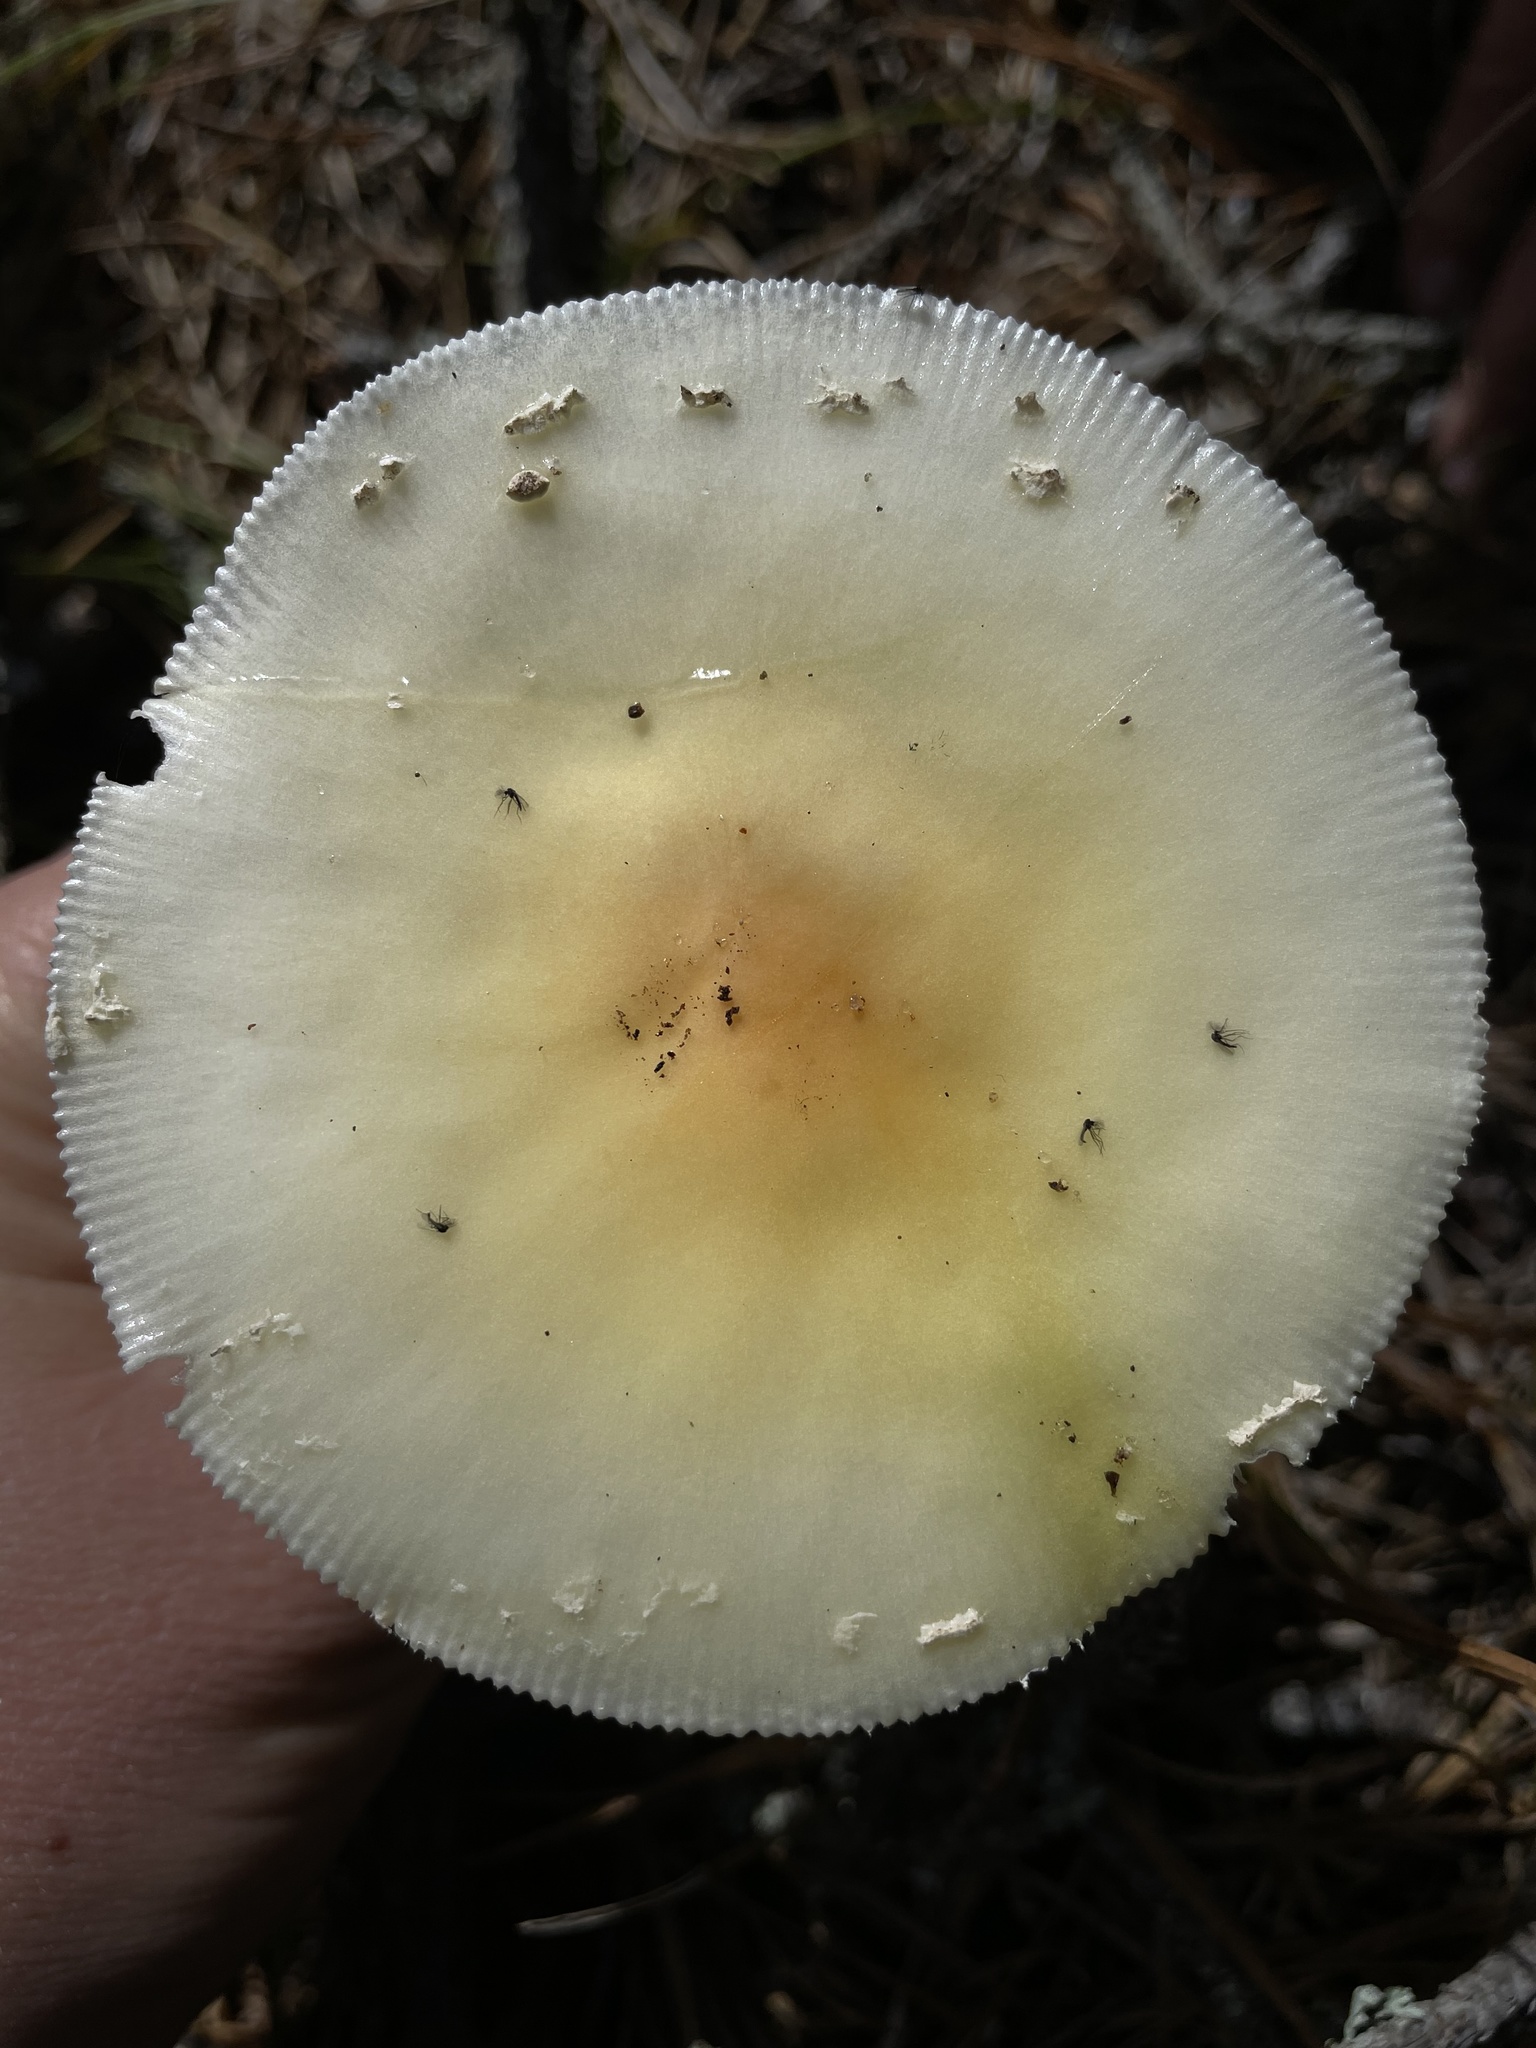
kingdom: Fungi
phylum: Basidiomycota
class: Agaricomycetes
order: Agaricales
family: Amanitaceae
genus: Amanita
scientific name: Amanita muscaria
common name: Fly agaric
